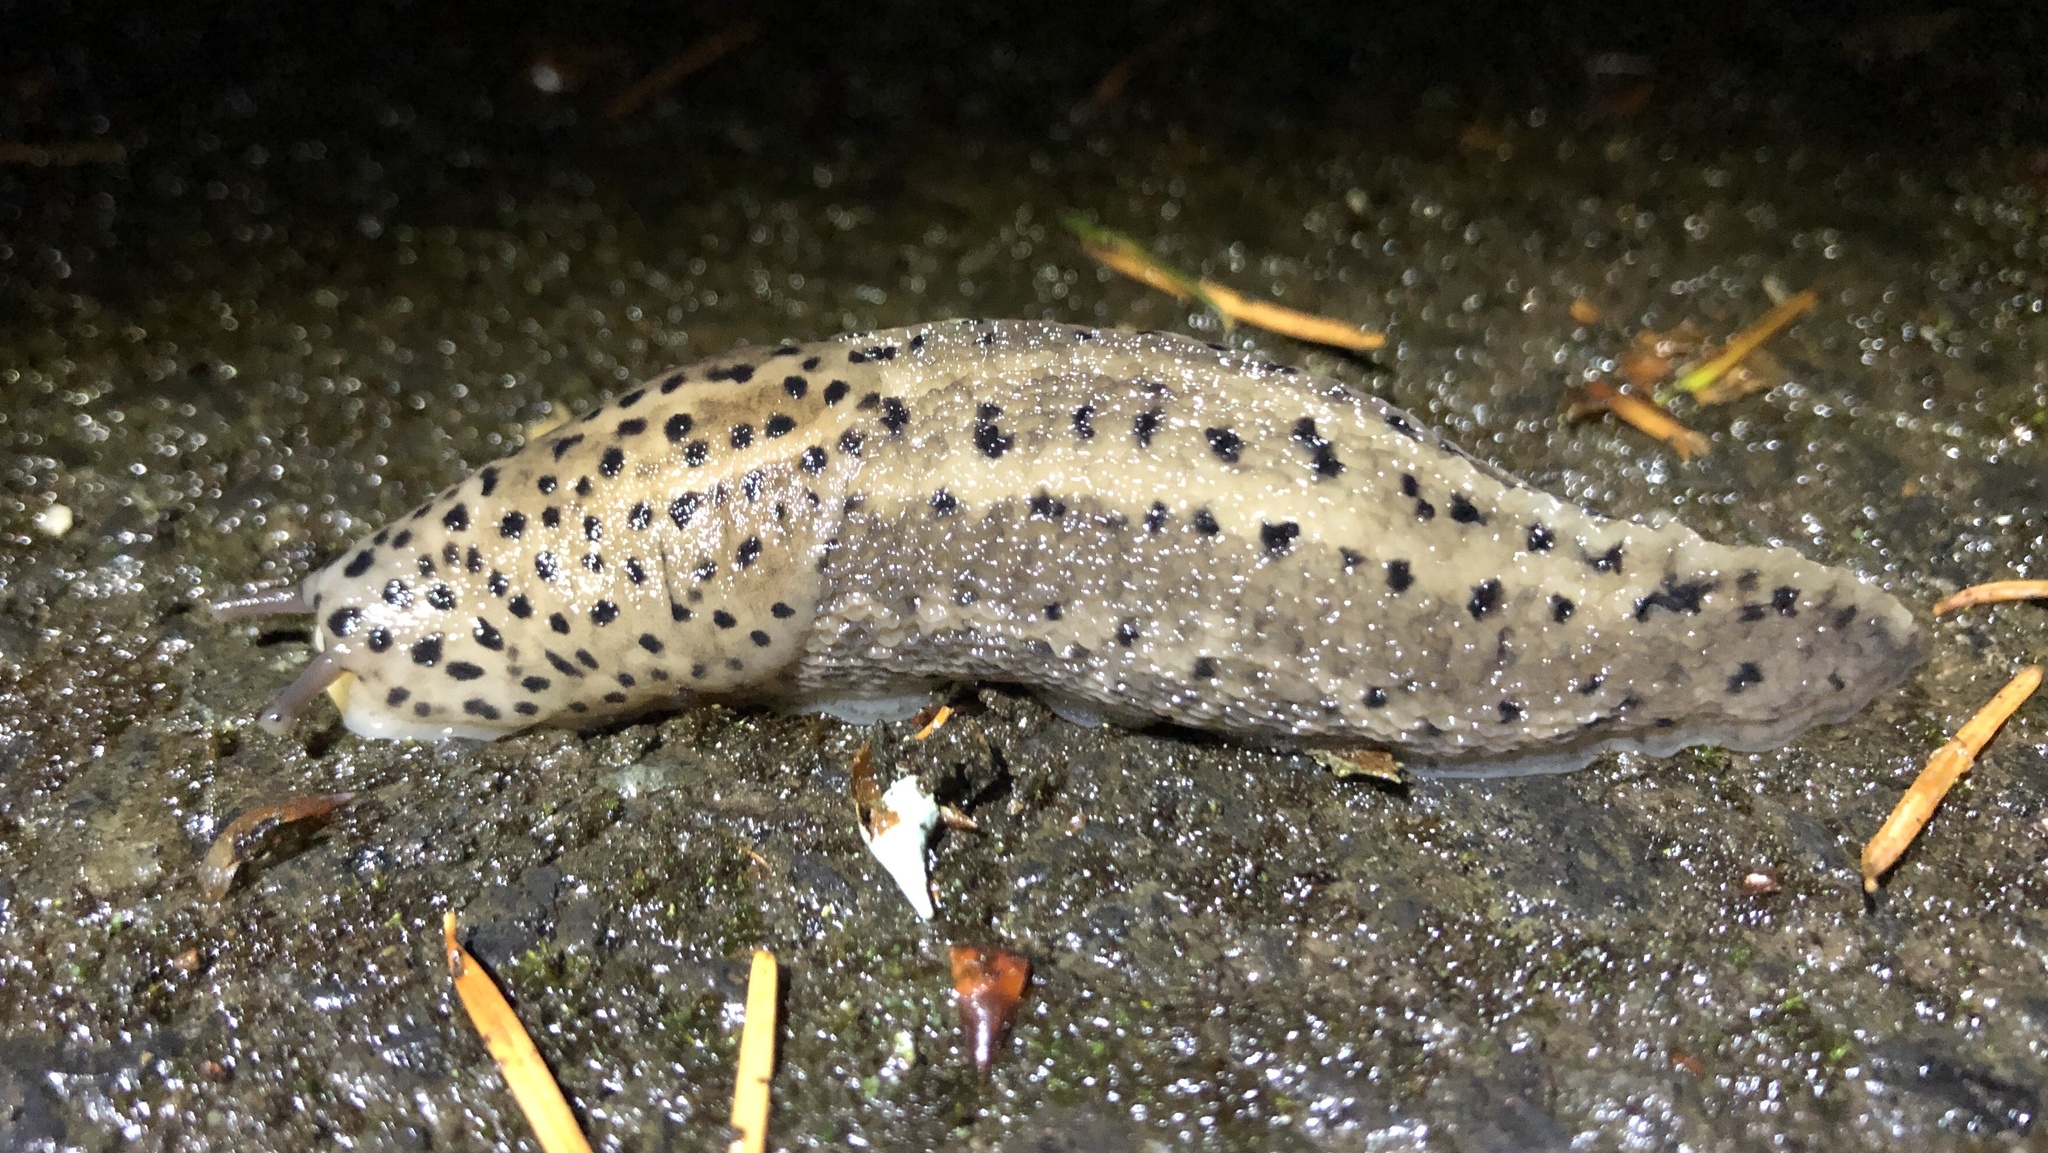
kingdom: Animalia
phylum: Mollusca
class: Gastropoda
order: Stylommatophora
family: Limacidae
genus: Limax
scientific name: Limax maximus
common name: Great grey slug
